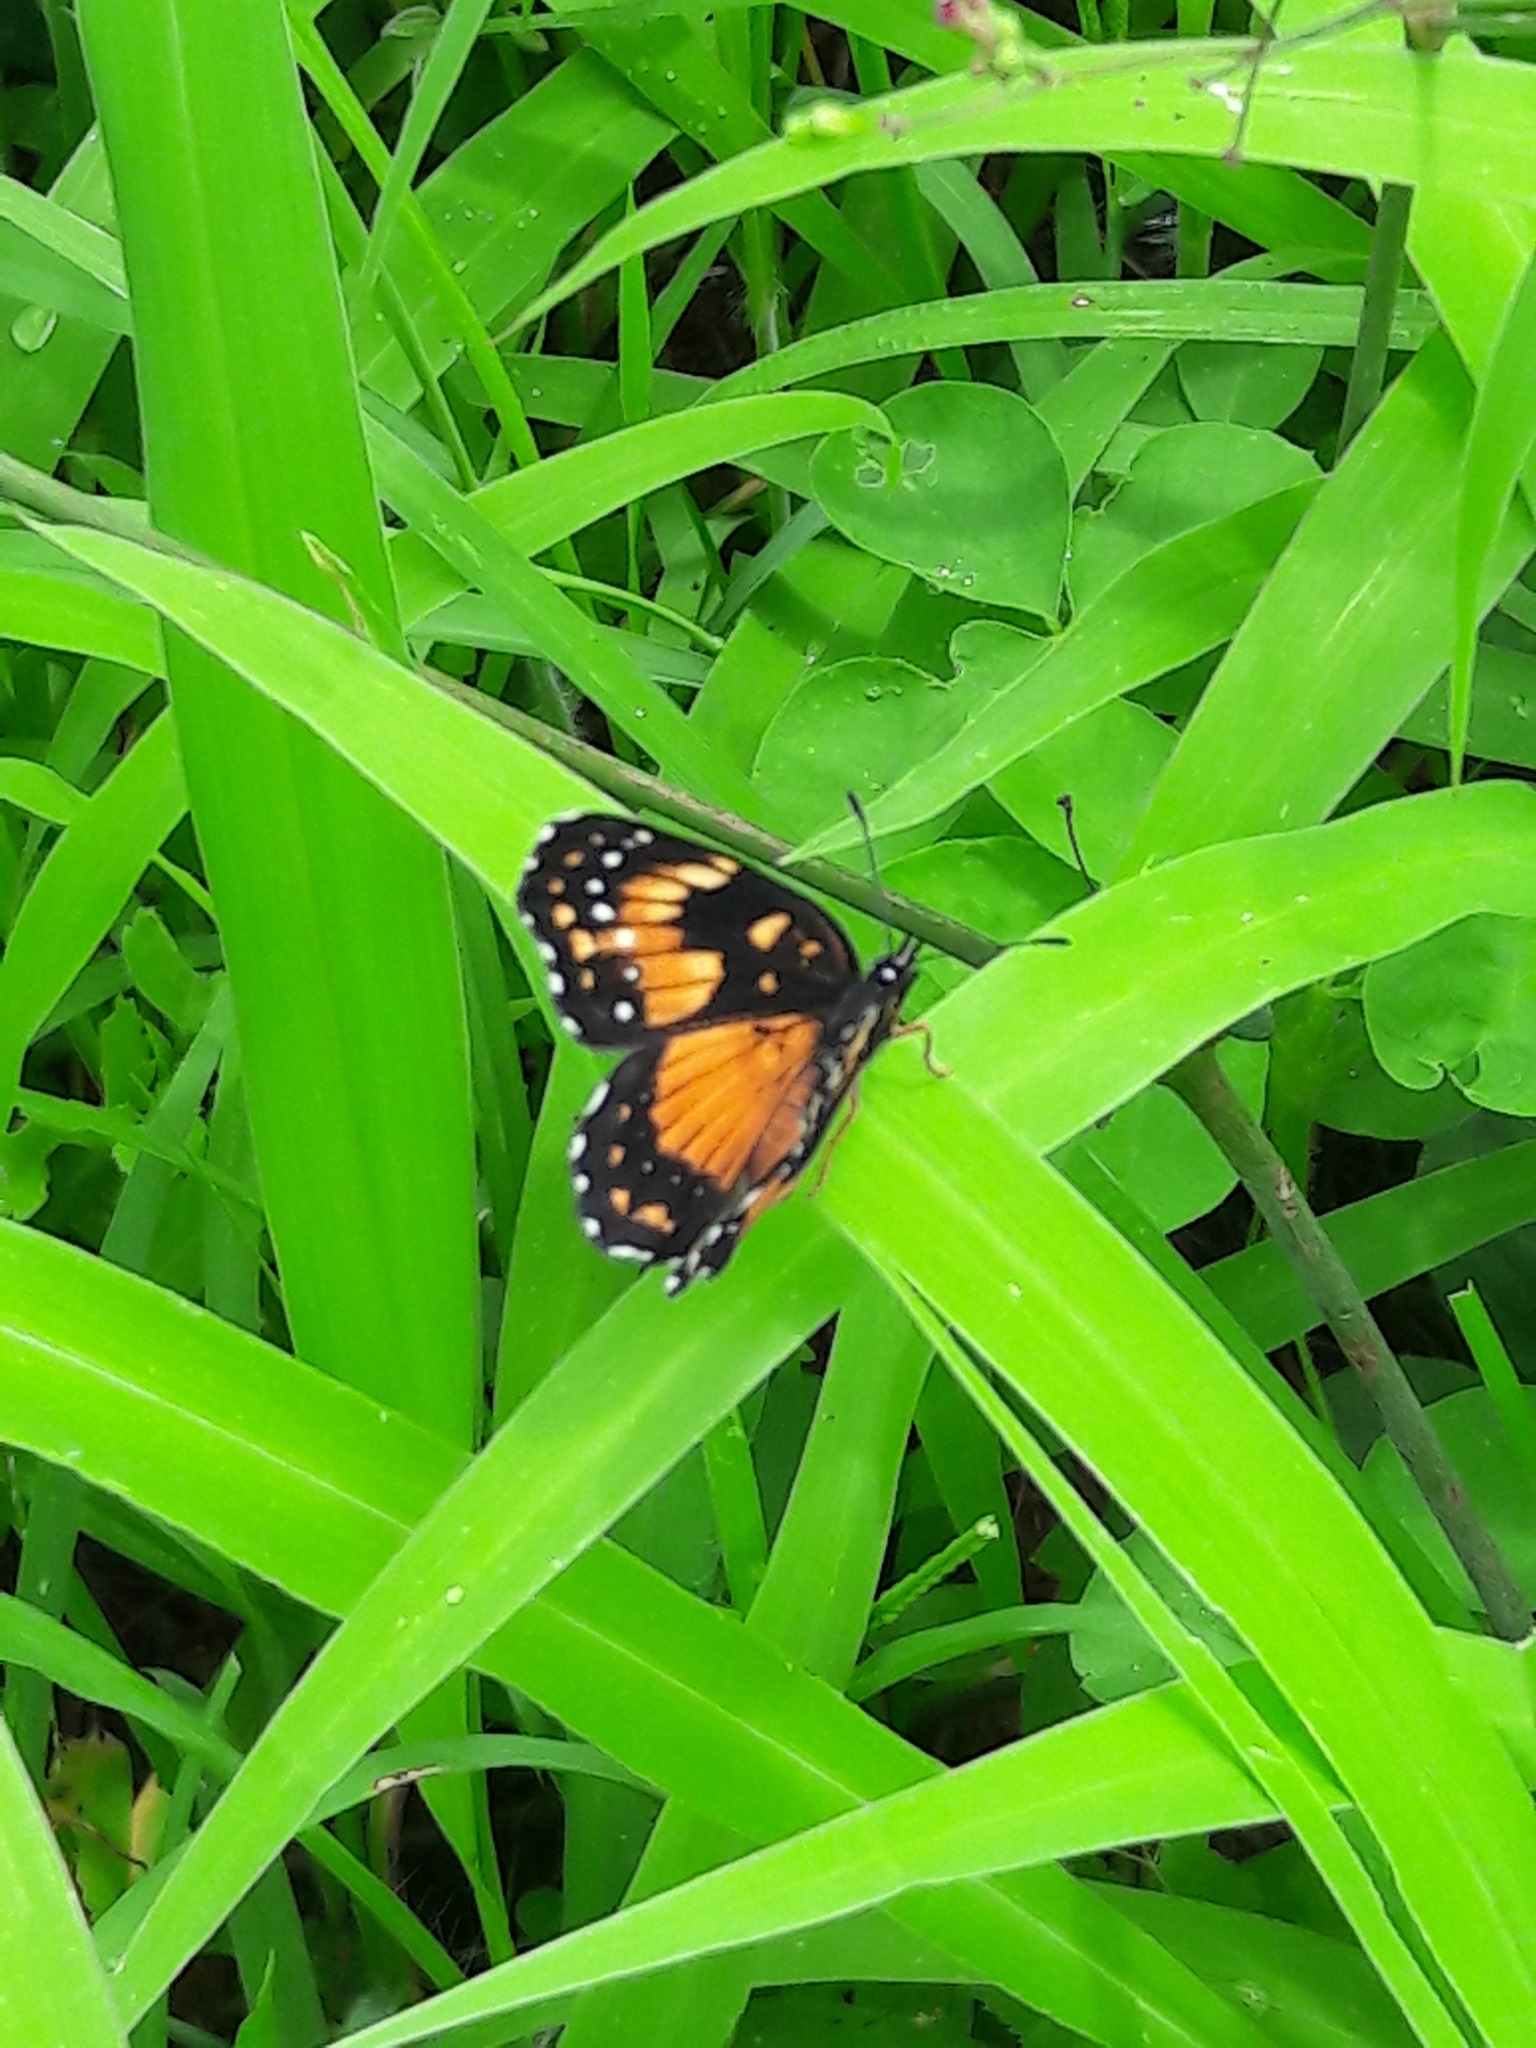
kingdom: Animalia
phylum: Arthropoda
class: Insecta
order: Lepidoptera
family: Nymphalidae
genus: Chlosyne
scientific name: Chlosyne lacinia
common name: Bordered patch
